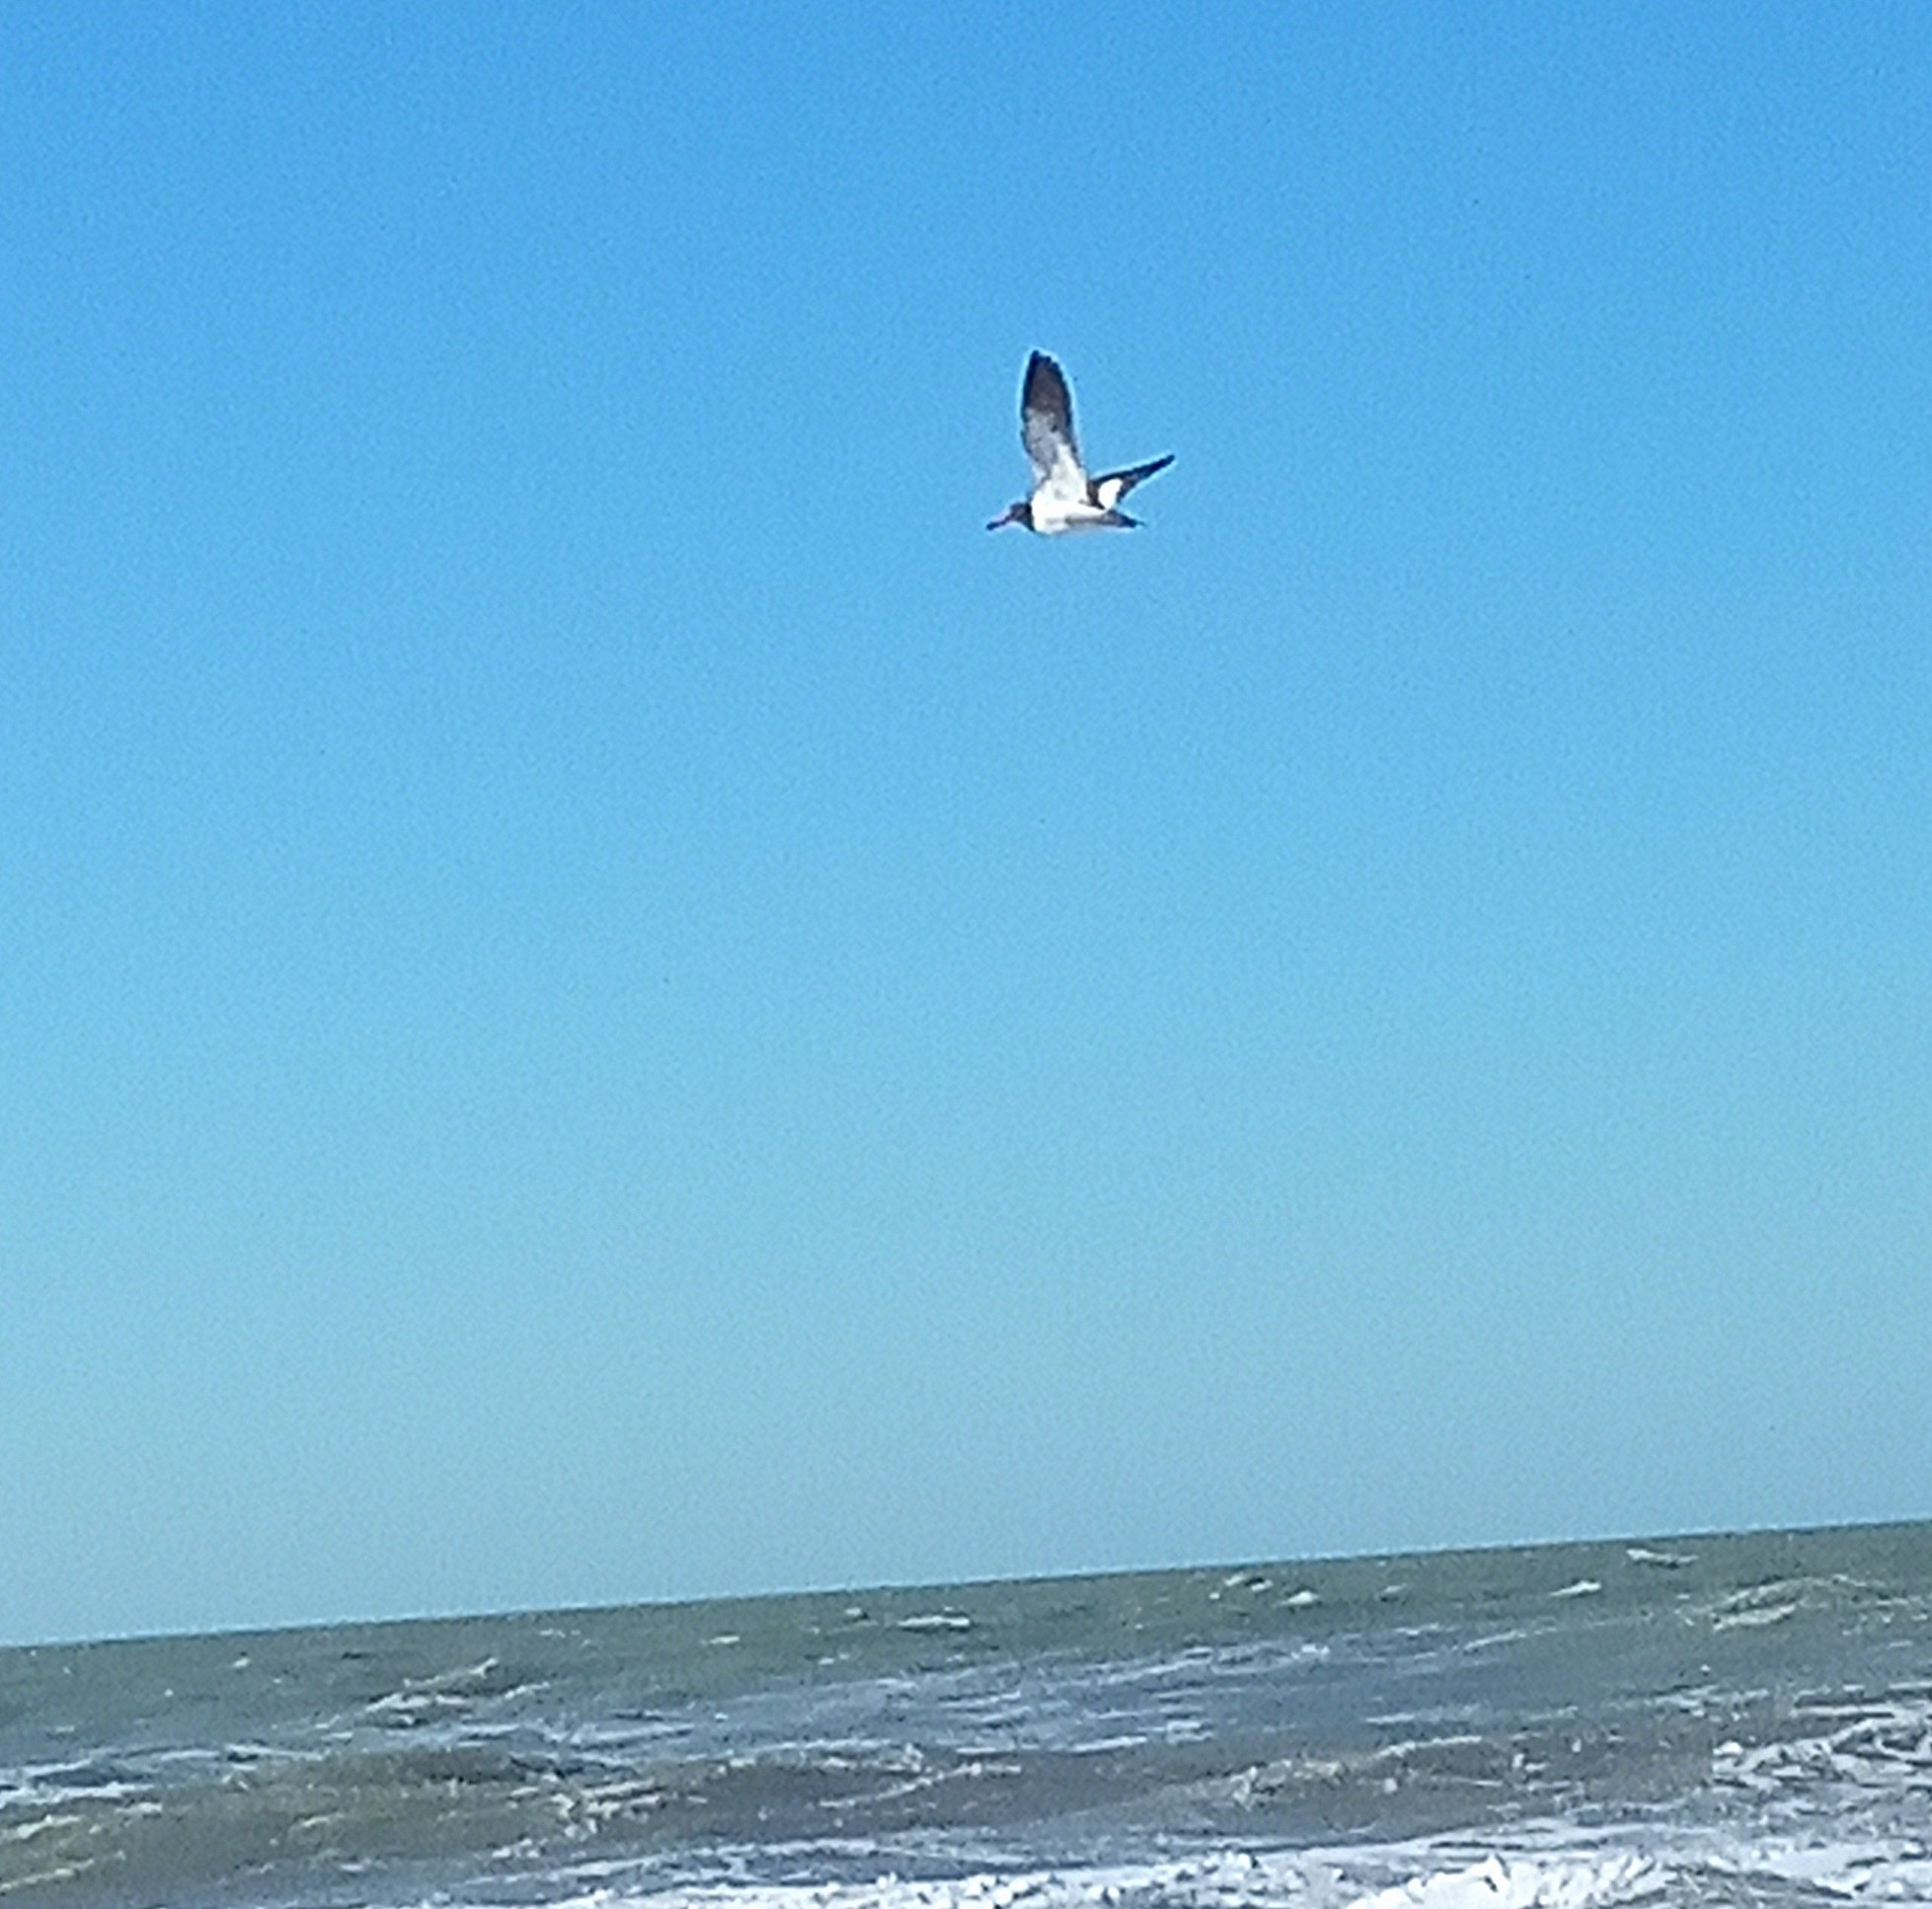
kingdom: Animalia
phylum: Chordata
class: Aves
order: Charadriiformes
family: Haematopodidae
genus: Haematopus
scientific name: Haematopus palliatus
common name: American oystercatcher
